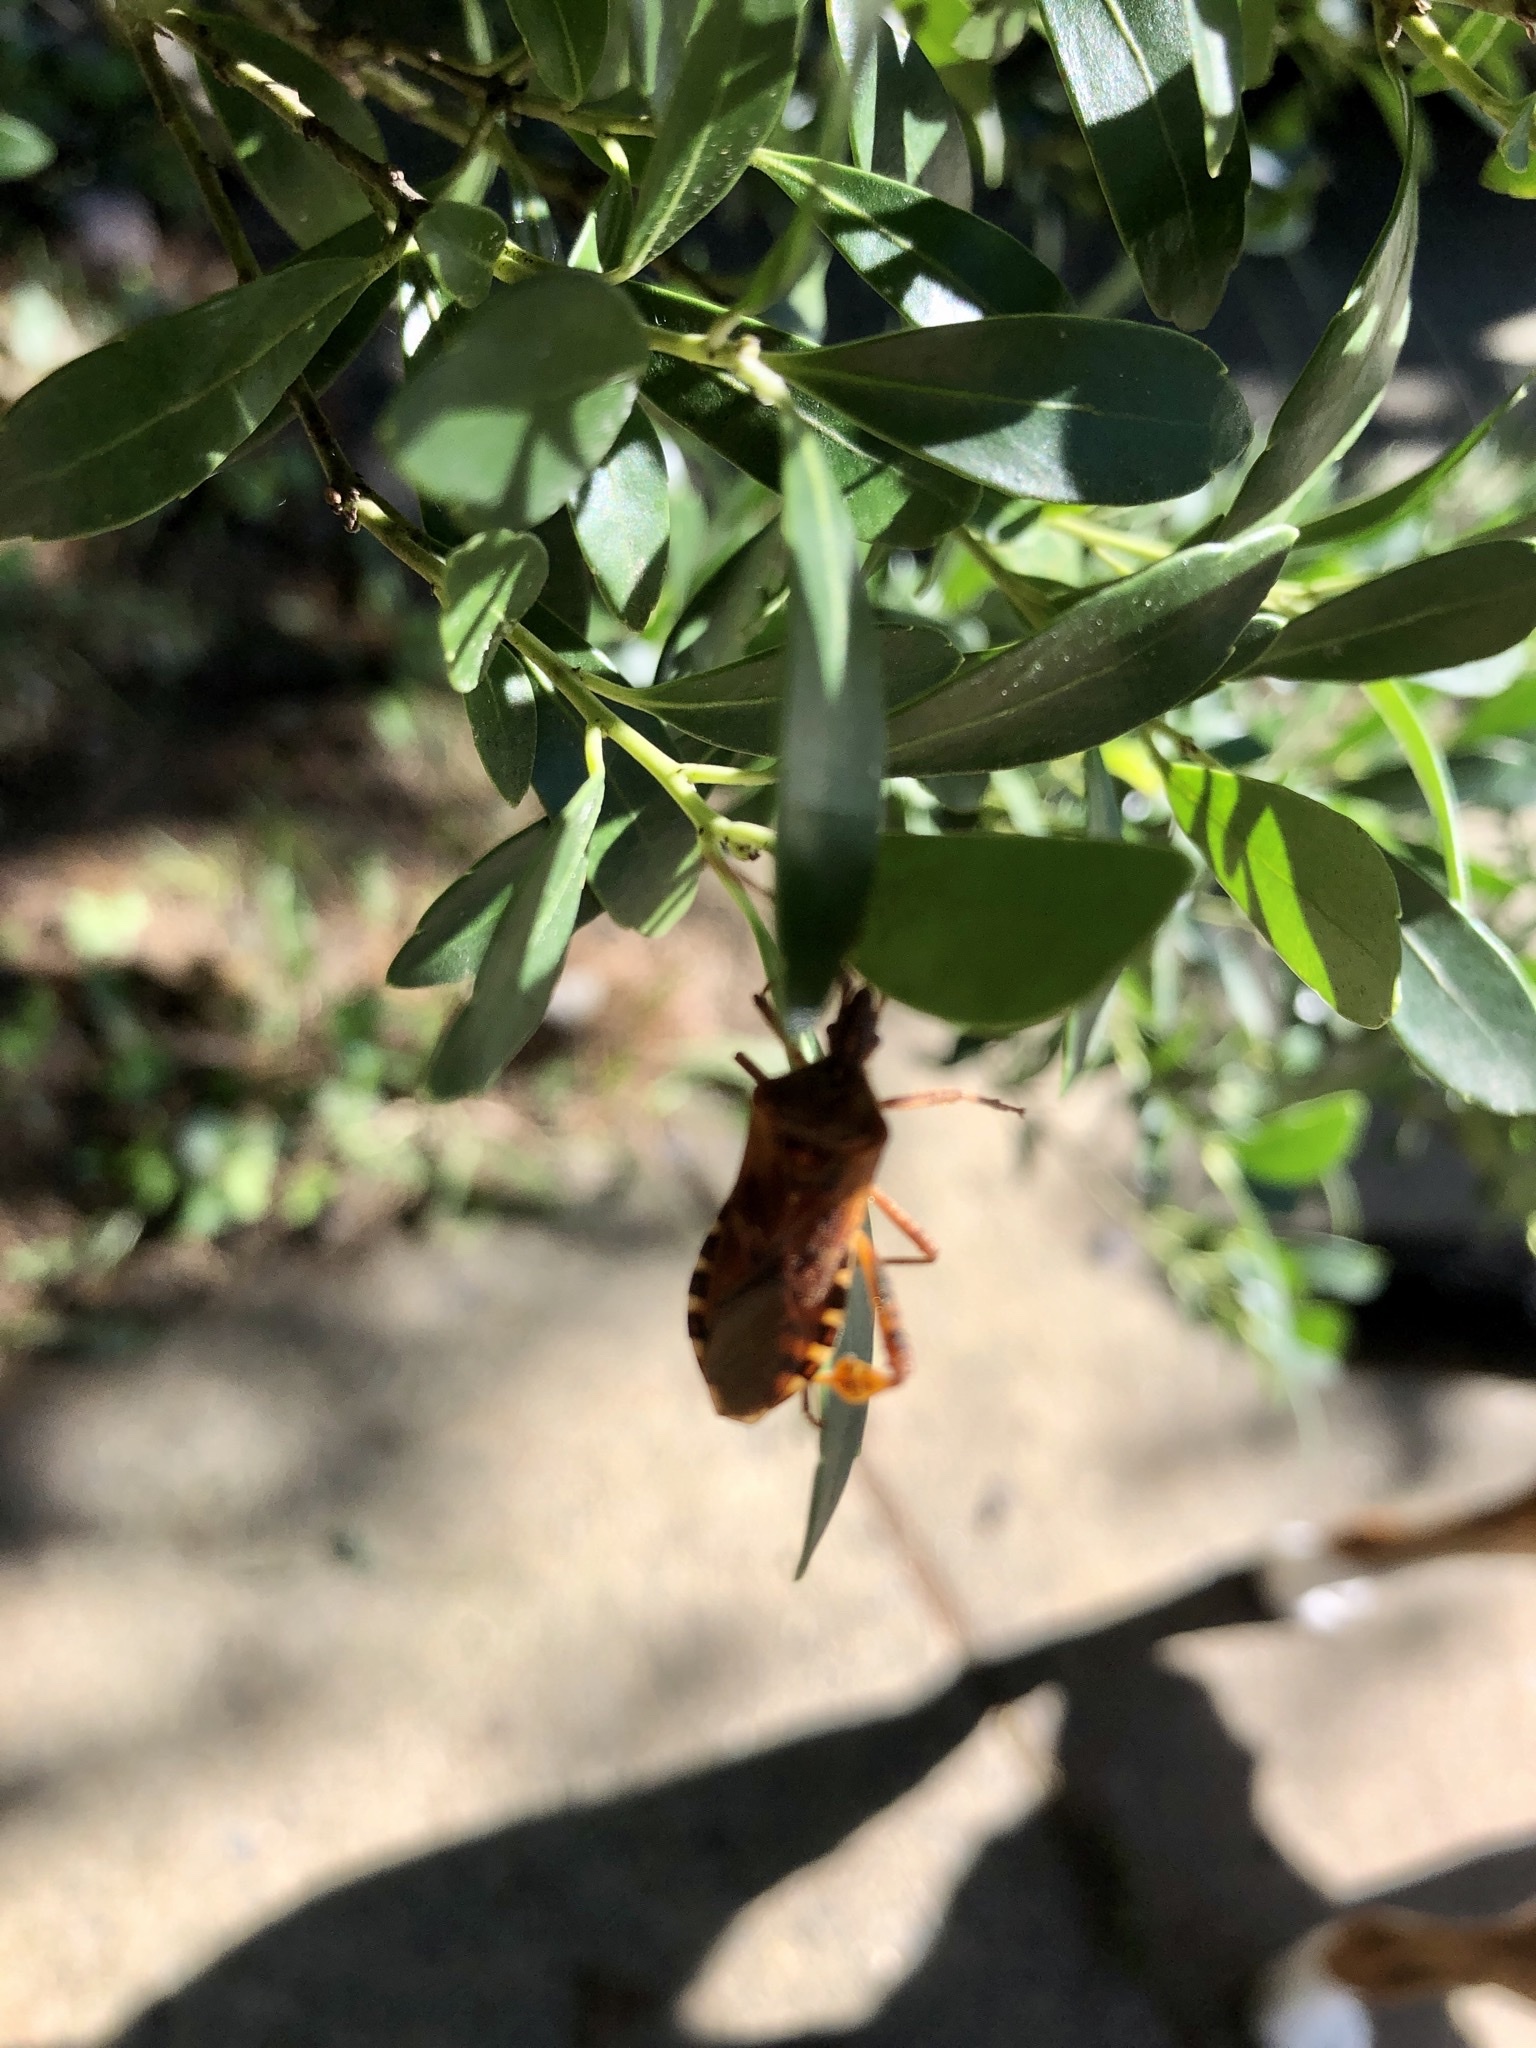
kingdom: Animalia
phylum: Arthropoda
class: Insecta
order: Hemiptera
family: Coreidae
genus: Leptoglossus
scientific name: Leptoglossus occidentalis
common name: Western conifer-seed bug
